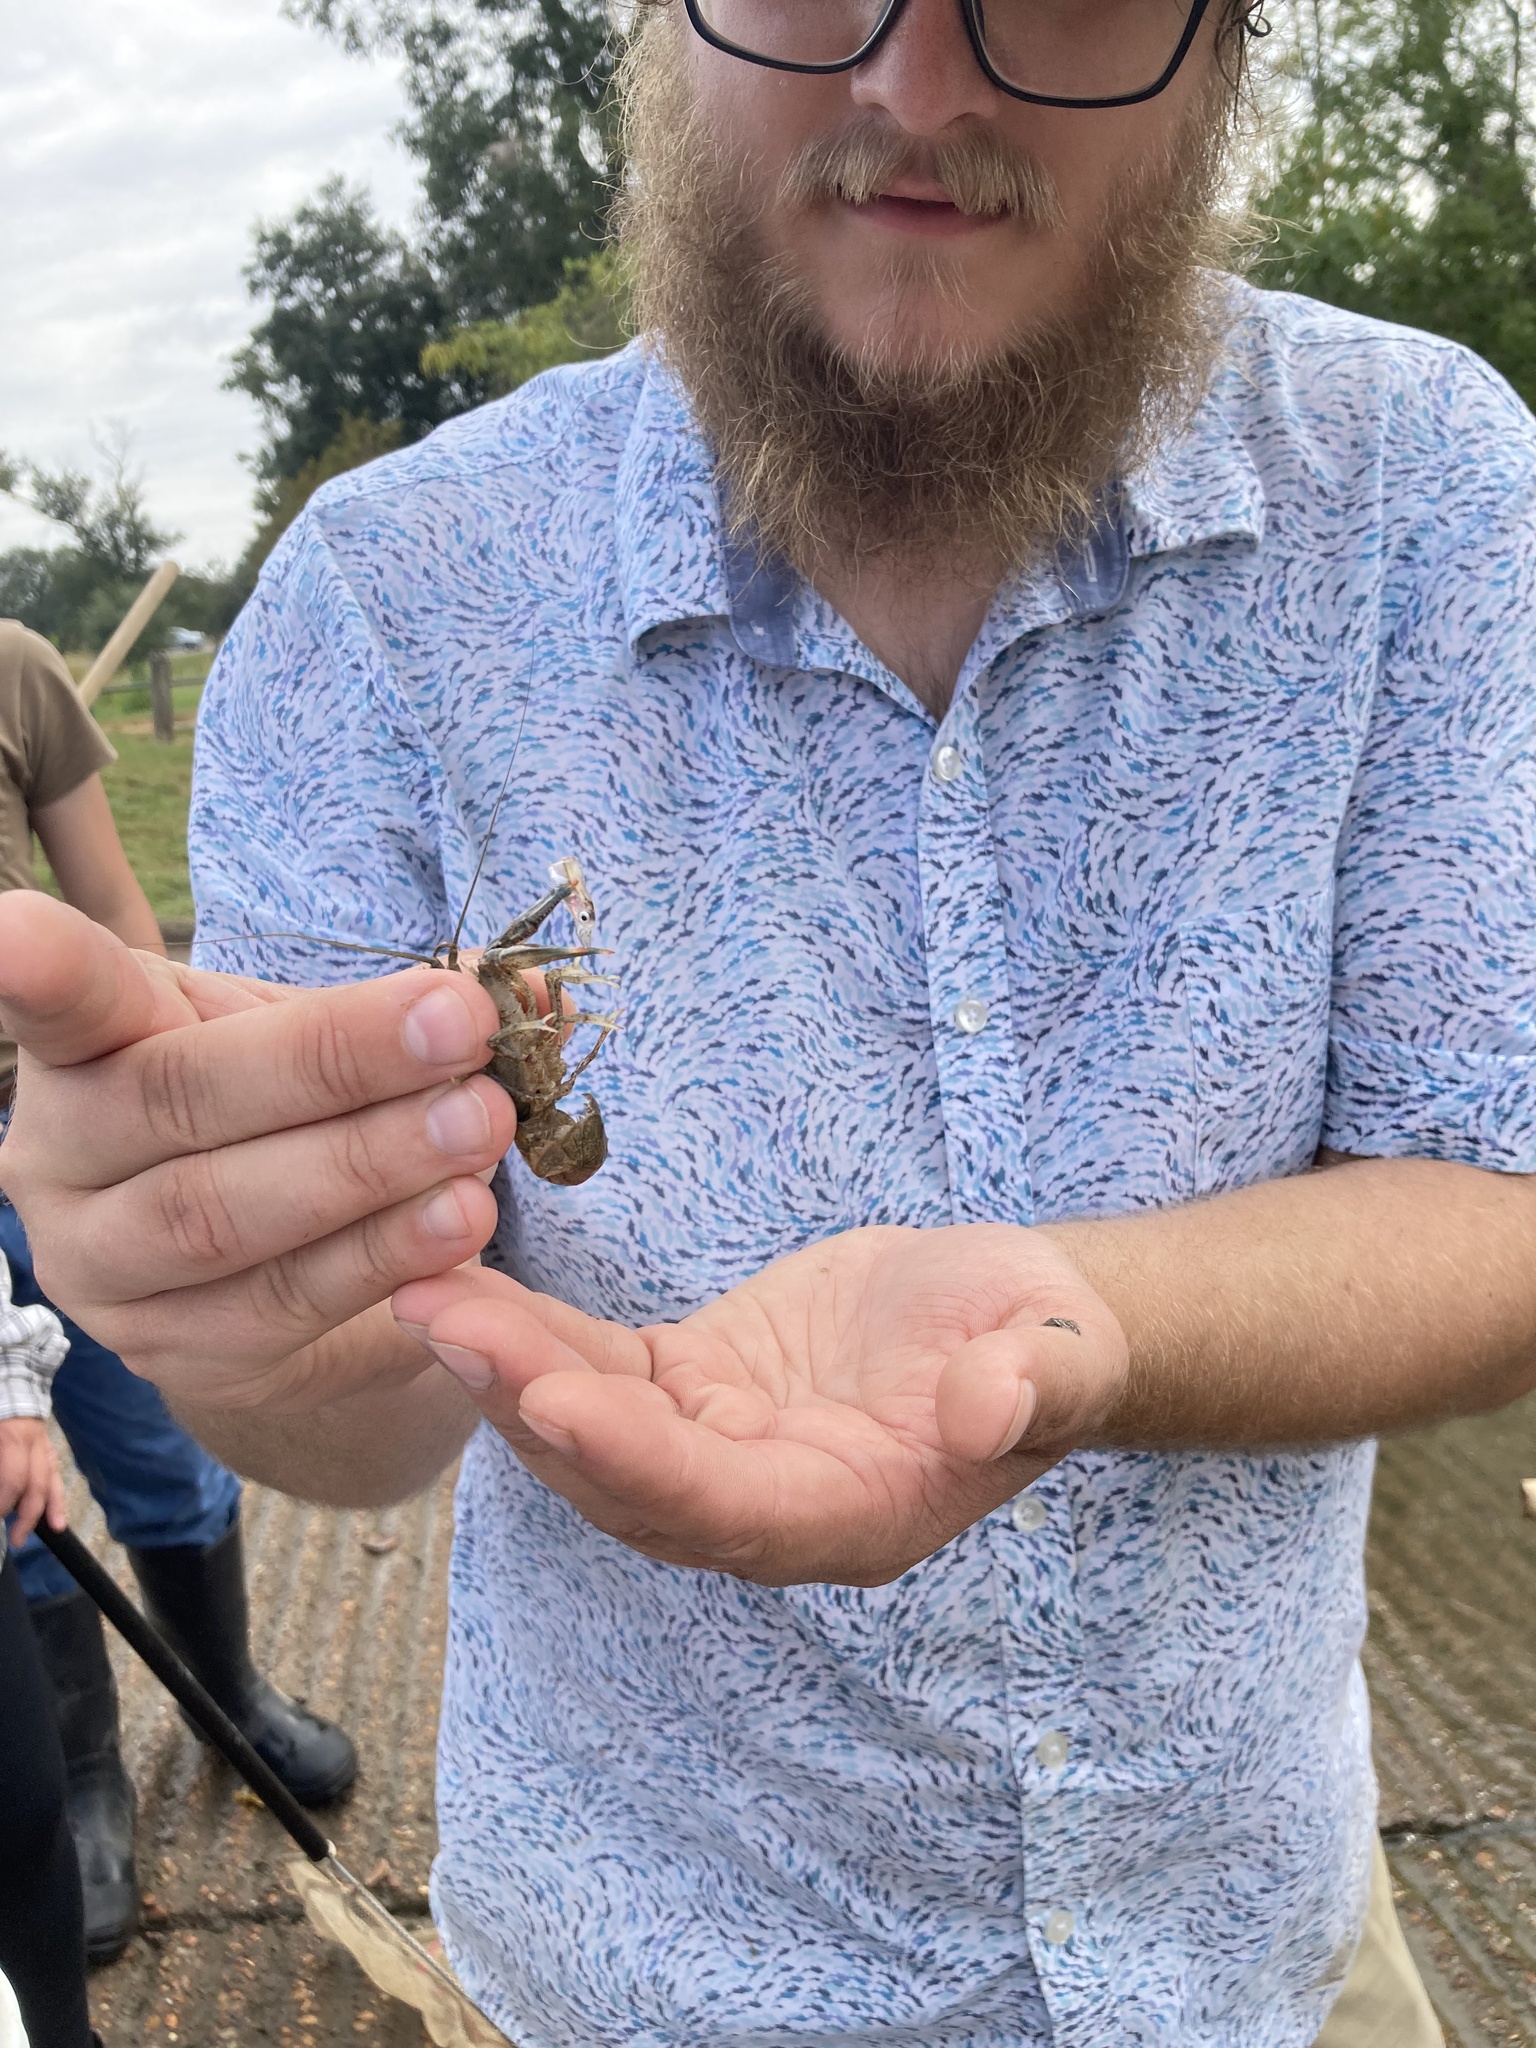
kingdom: Animalia
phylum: Arthropoda
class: Malacostraca
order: Decapoda
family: Cambaridae
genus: Procambarus
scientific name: Procambarus clarkii
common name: Red swamp crayfish
